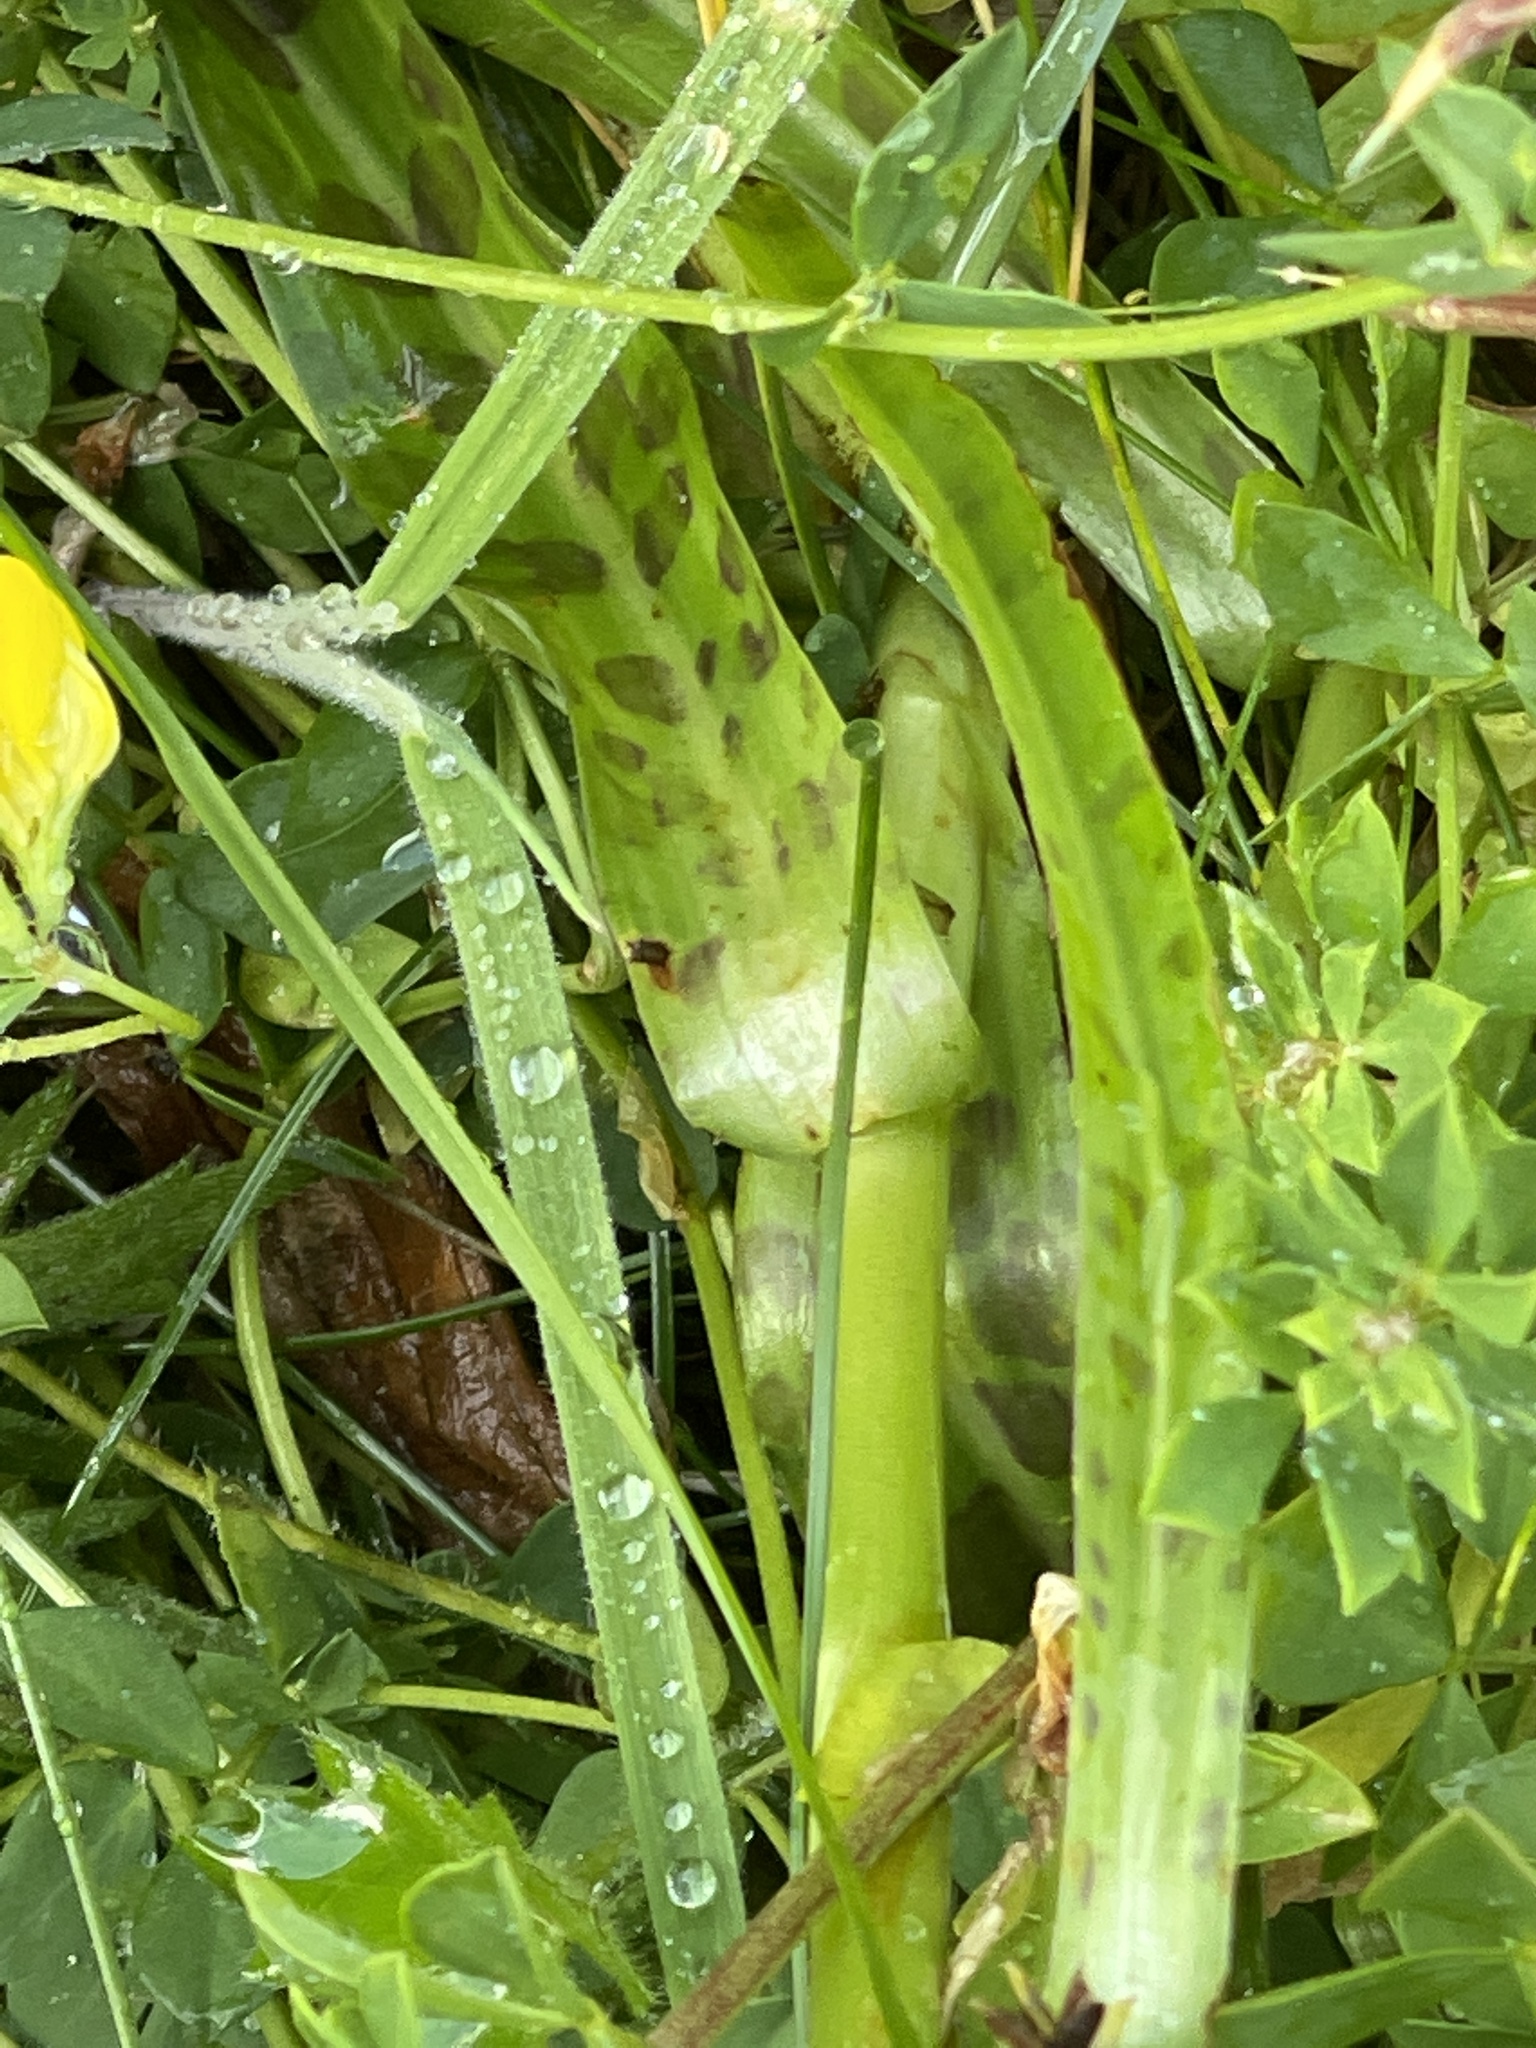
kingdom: Plantae
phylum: Tracheophyta
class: Liliopsida
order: Asparagales
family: Orchidaceae
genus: Dactylorhiza
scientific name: Dactylorhiza maculata
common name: Heath spotted-orchid
